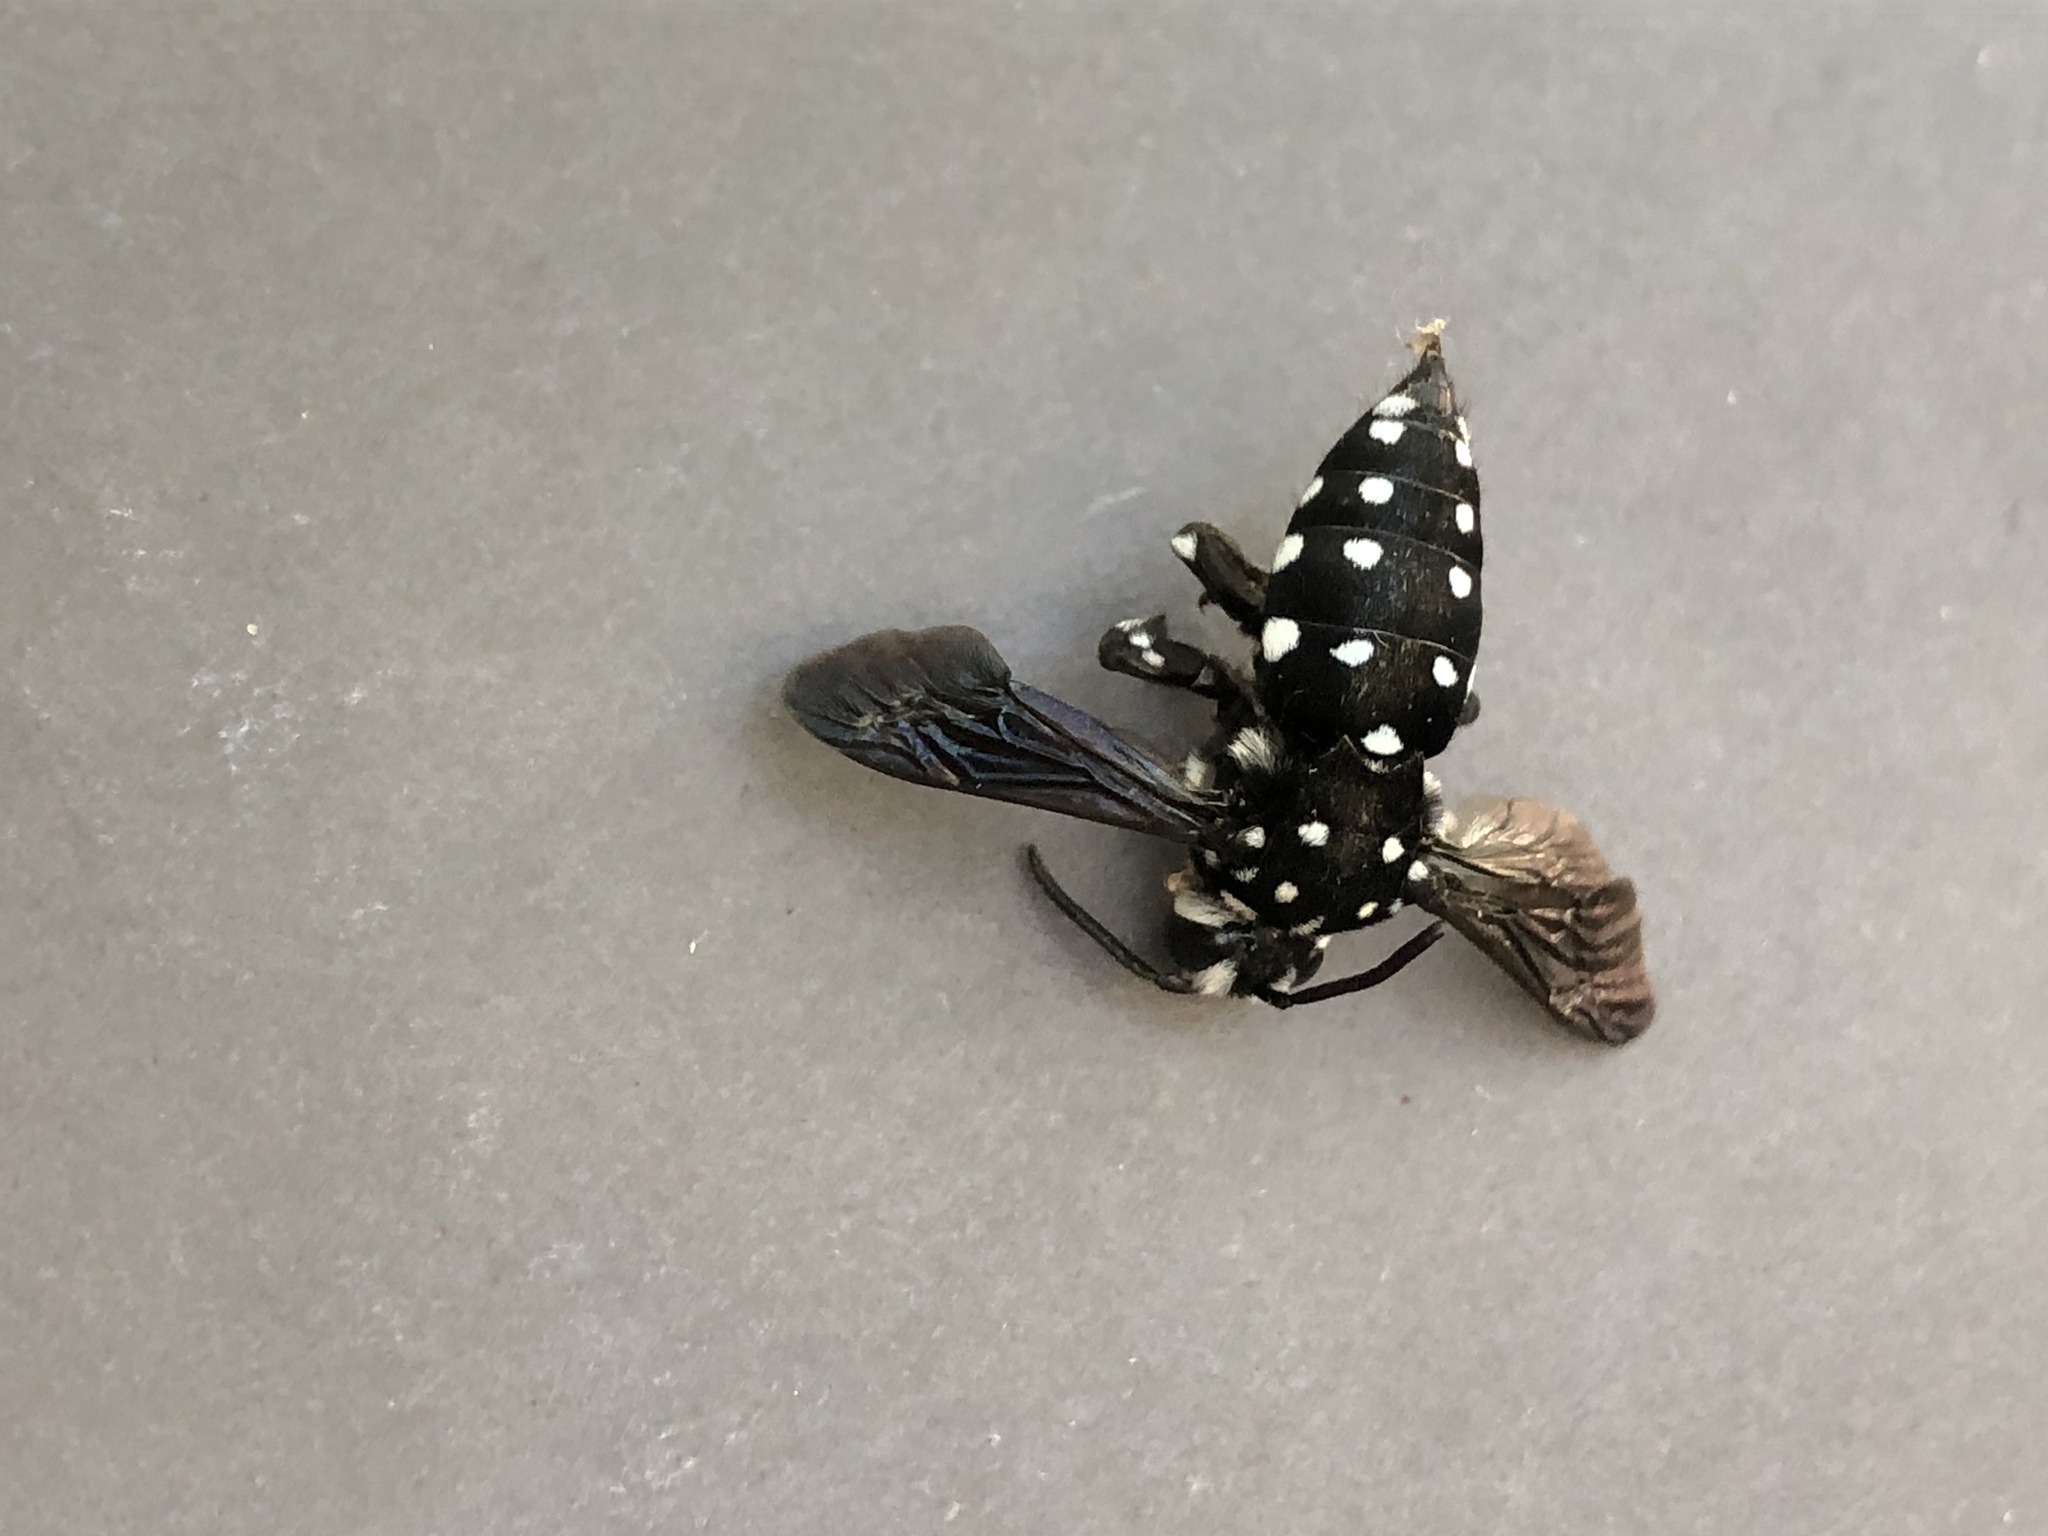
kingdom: Animalia
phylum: Arthropoda
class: Insecta
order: Hymenoptera
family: Apidae
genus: Thyreus
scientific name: Thyreus lugubris
